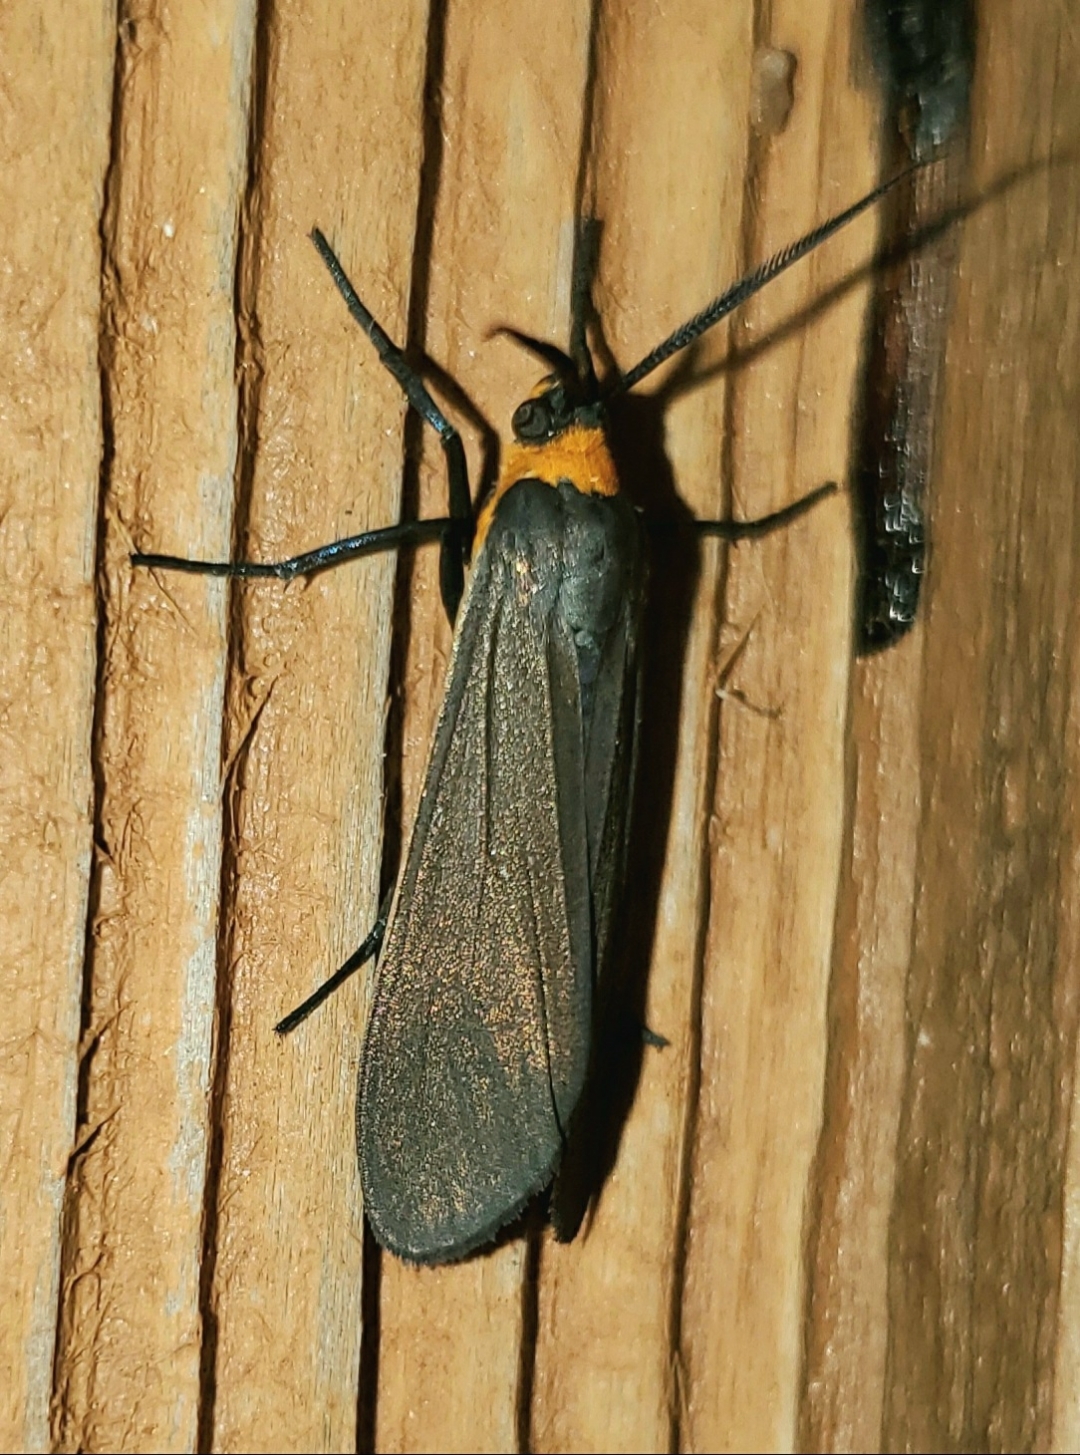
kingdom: Animalia
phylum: Arthropoda
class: Insecta
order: Lepidoptera
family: Erebidae
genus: Cisseps
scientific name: Cisseps fulvicollis
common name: Yellow-collared scape moth
